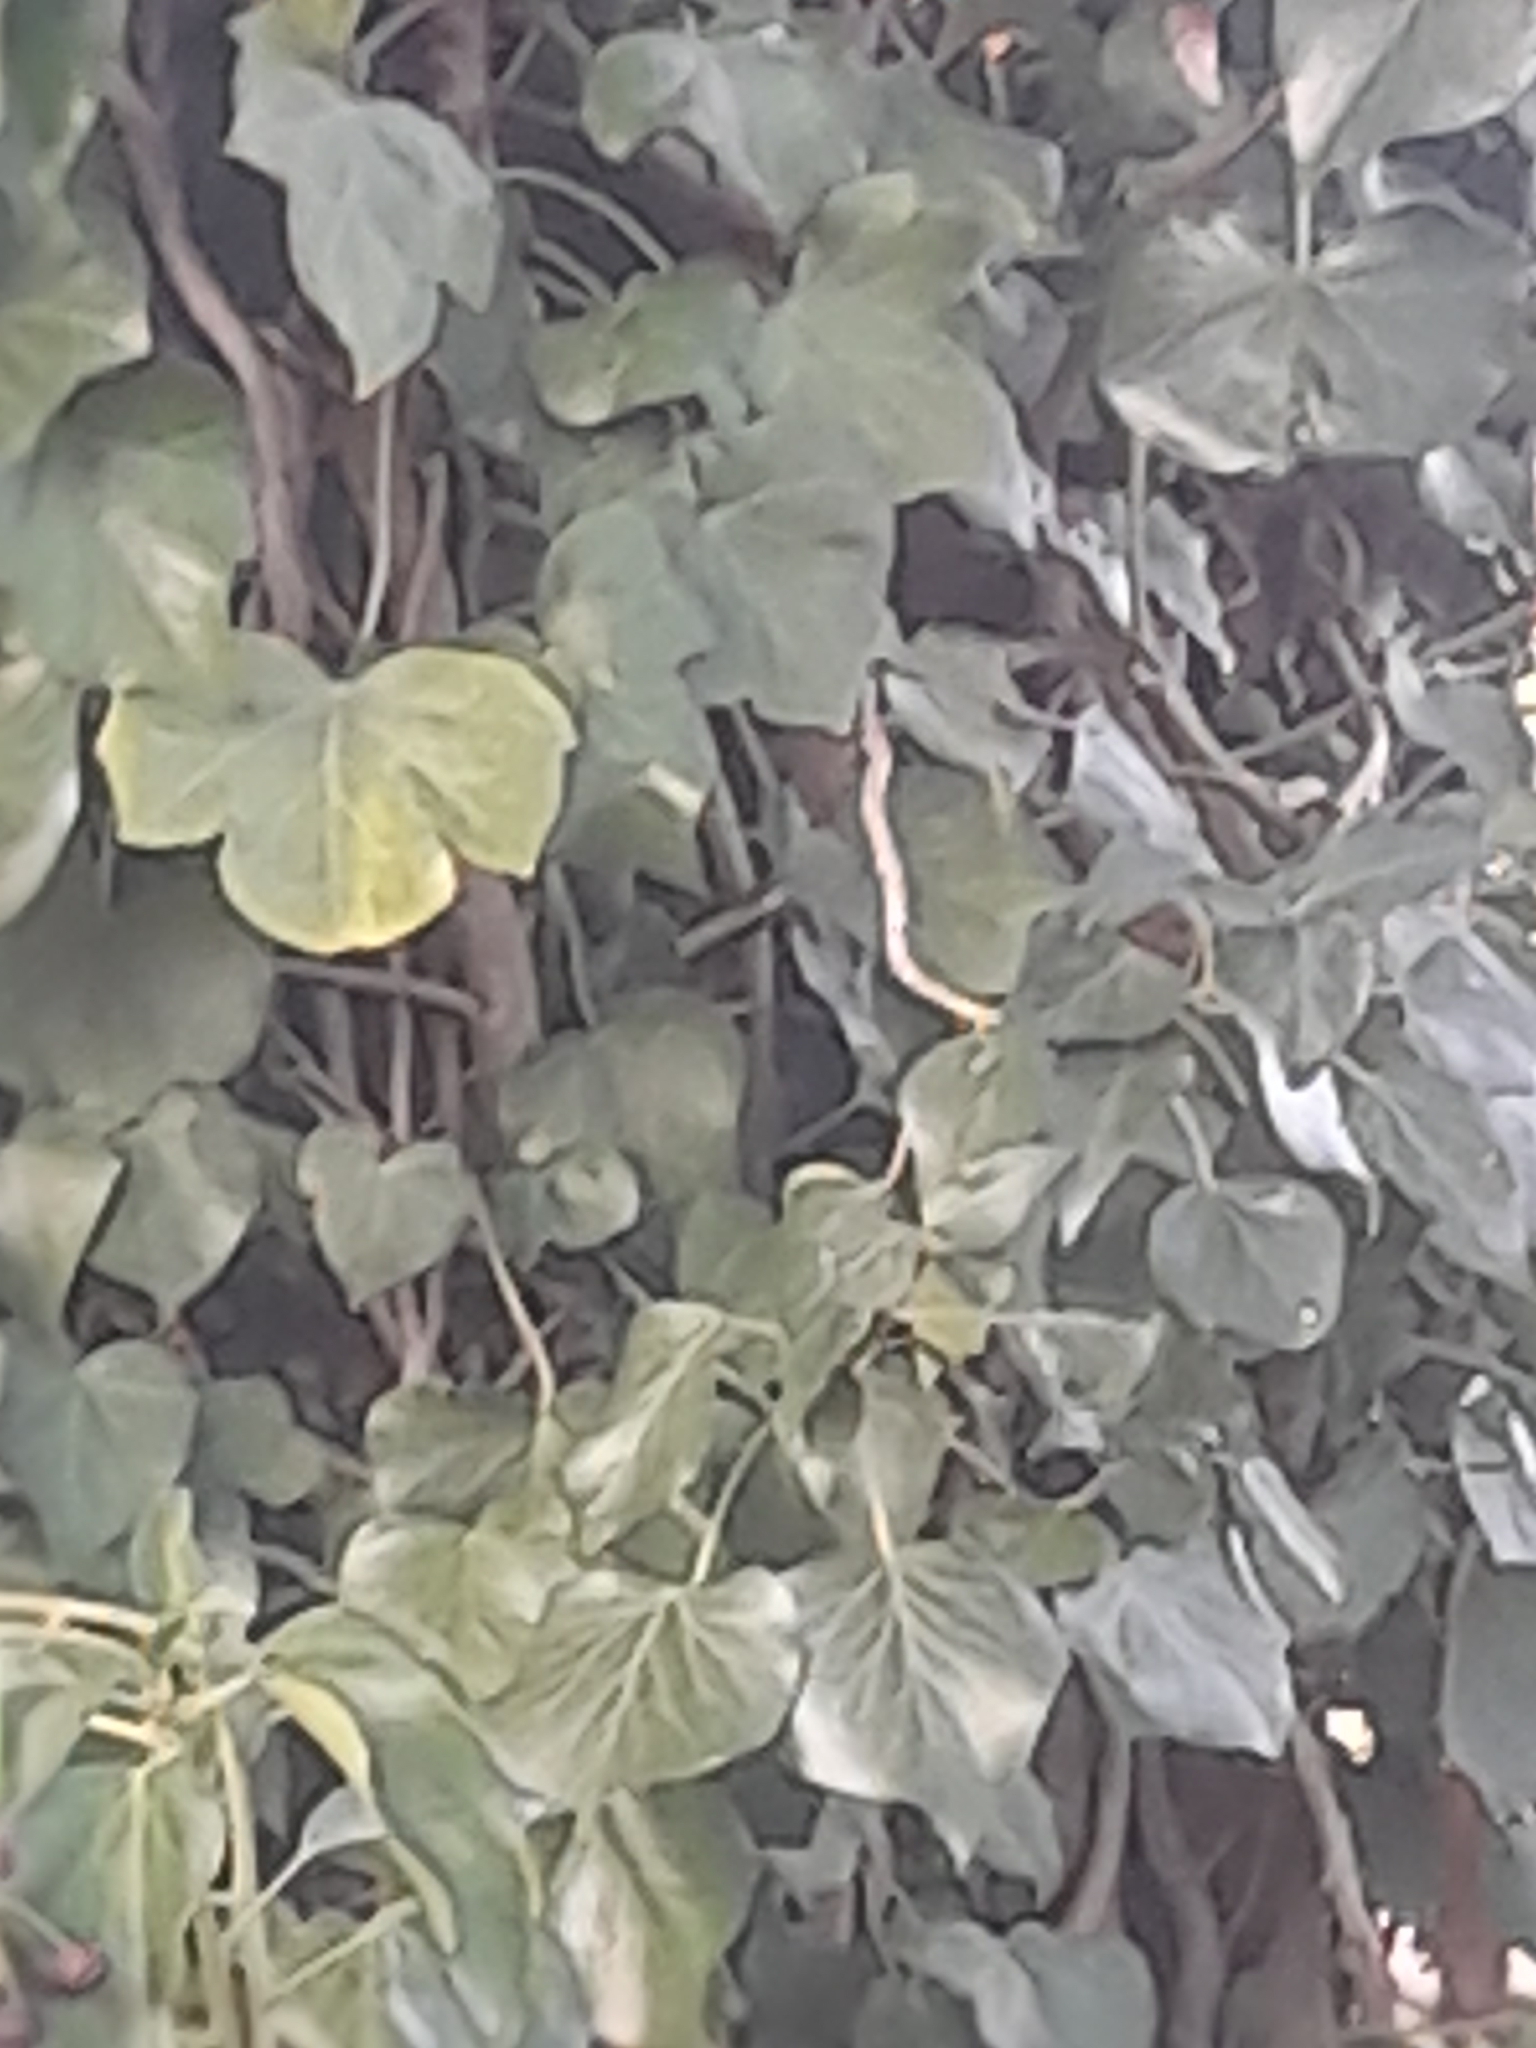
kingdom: Plantae
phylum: Tracheophyta
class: Magnoliopsida
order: Apiales
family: Araliaceae
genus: Hedera
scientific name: Hedera helix
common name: Ivy
